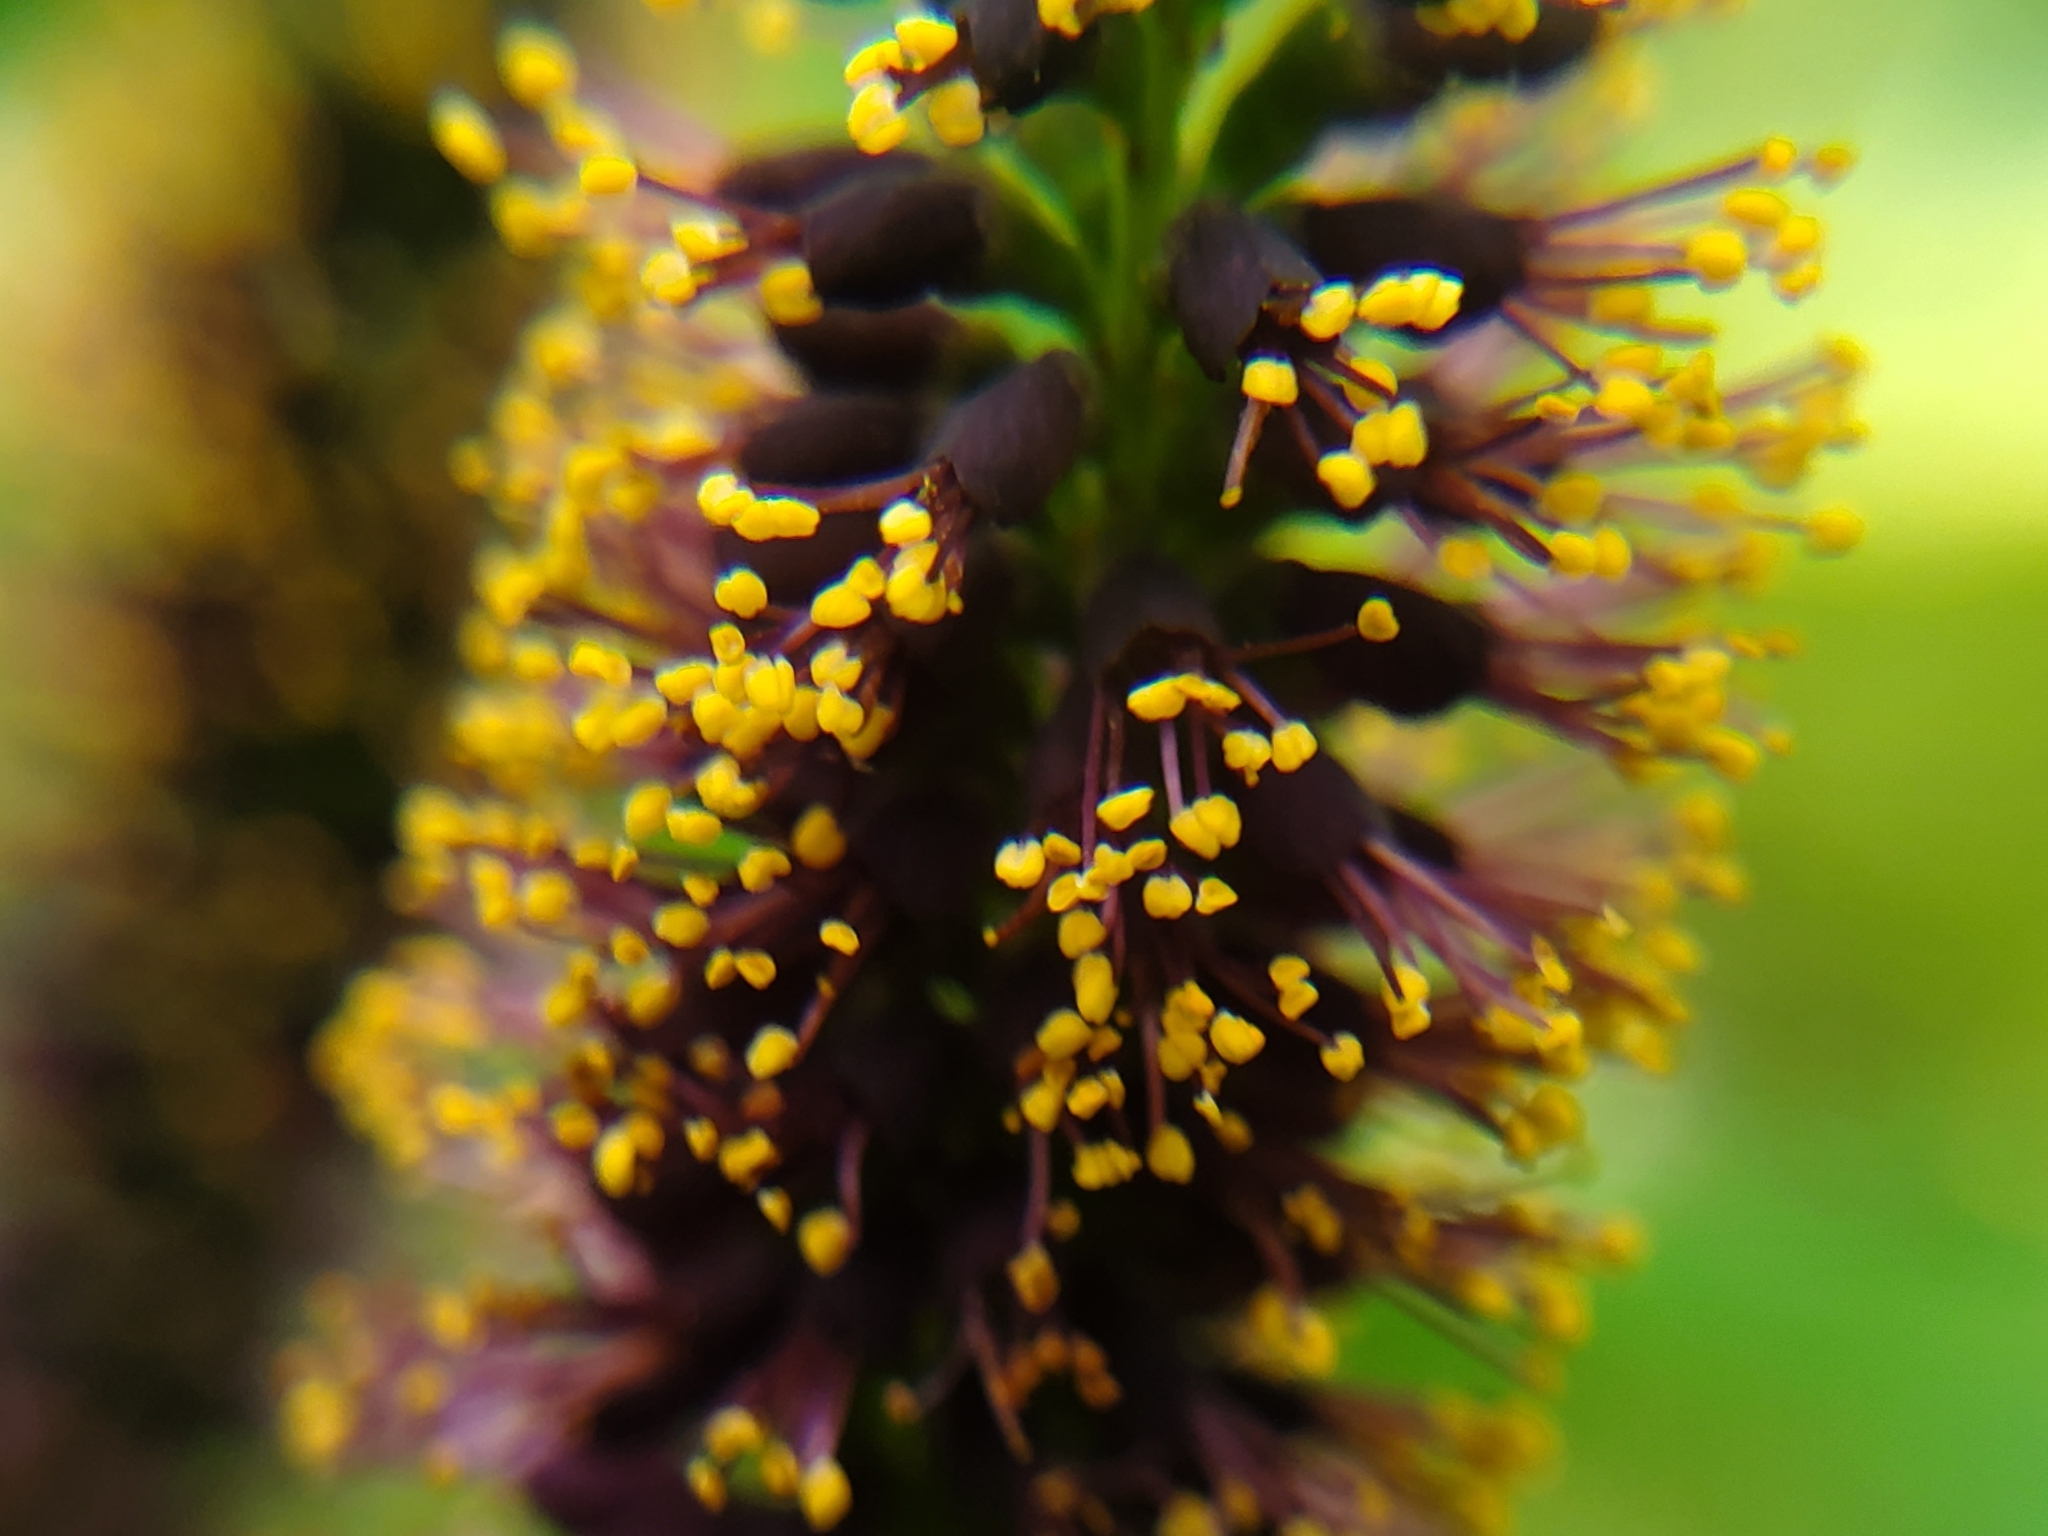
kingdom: Plantae
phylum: Tracheophyta
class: Magnoliopsida
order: Fabales
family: Fabaceae
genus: Amorpha
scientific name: Amorpha fruticosa
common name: False indigo
